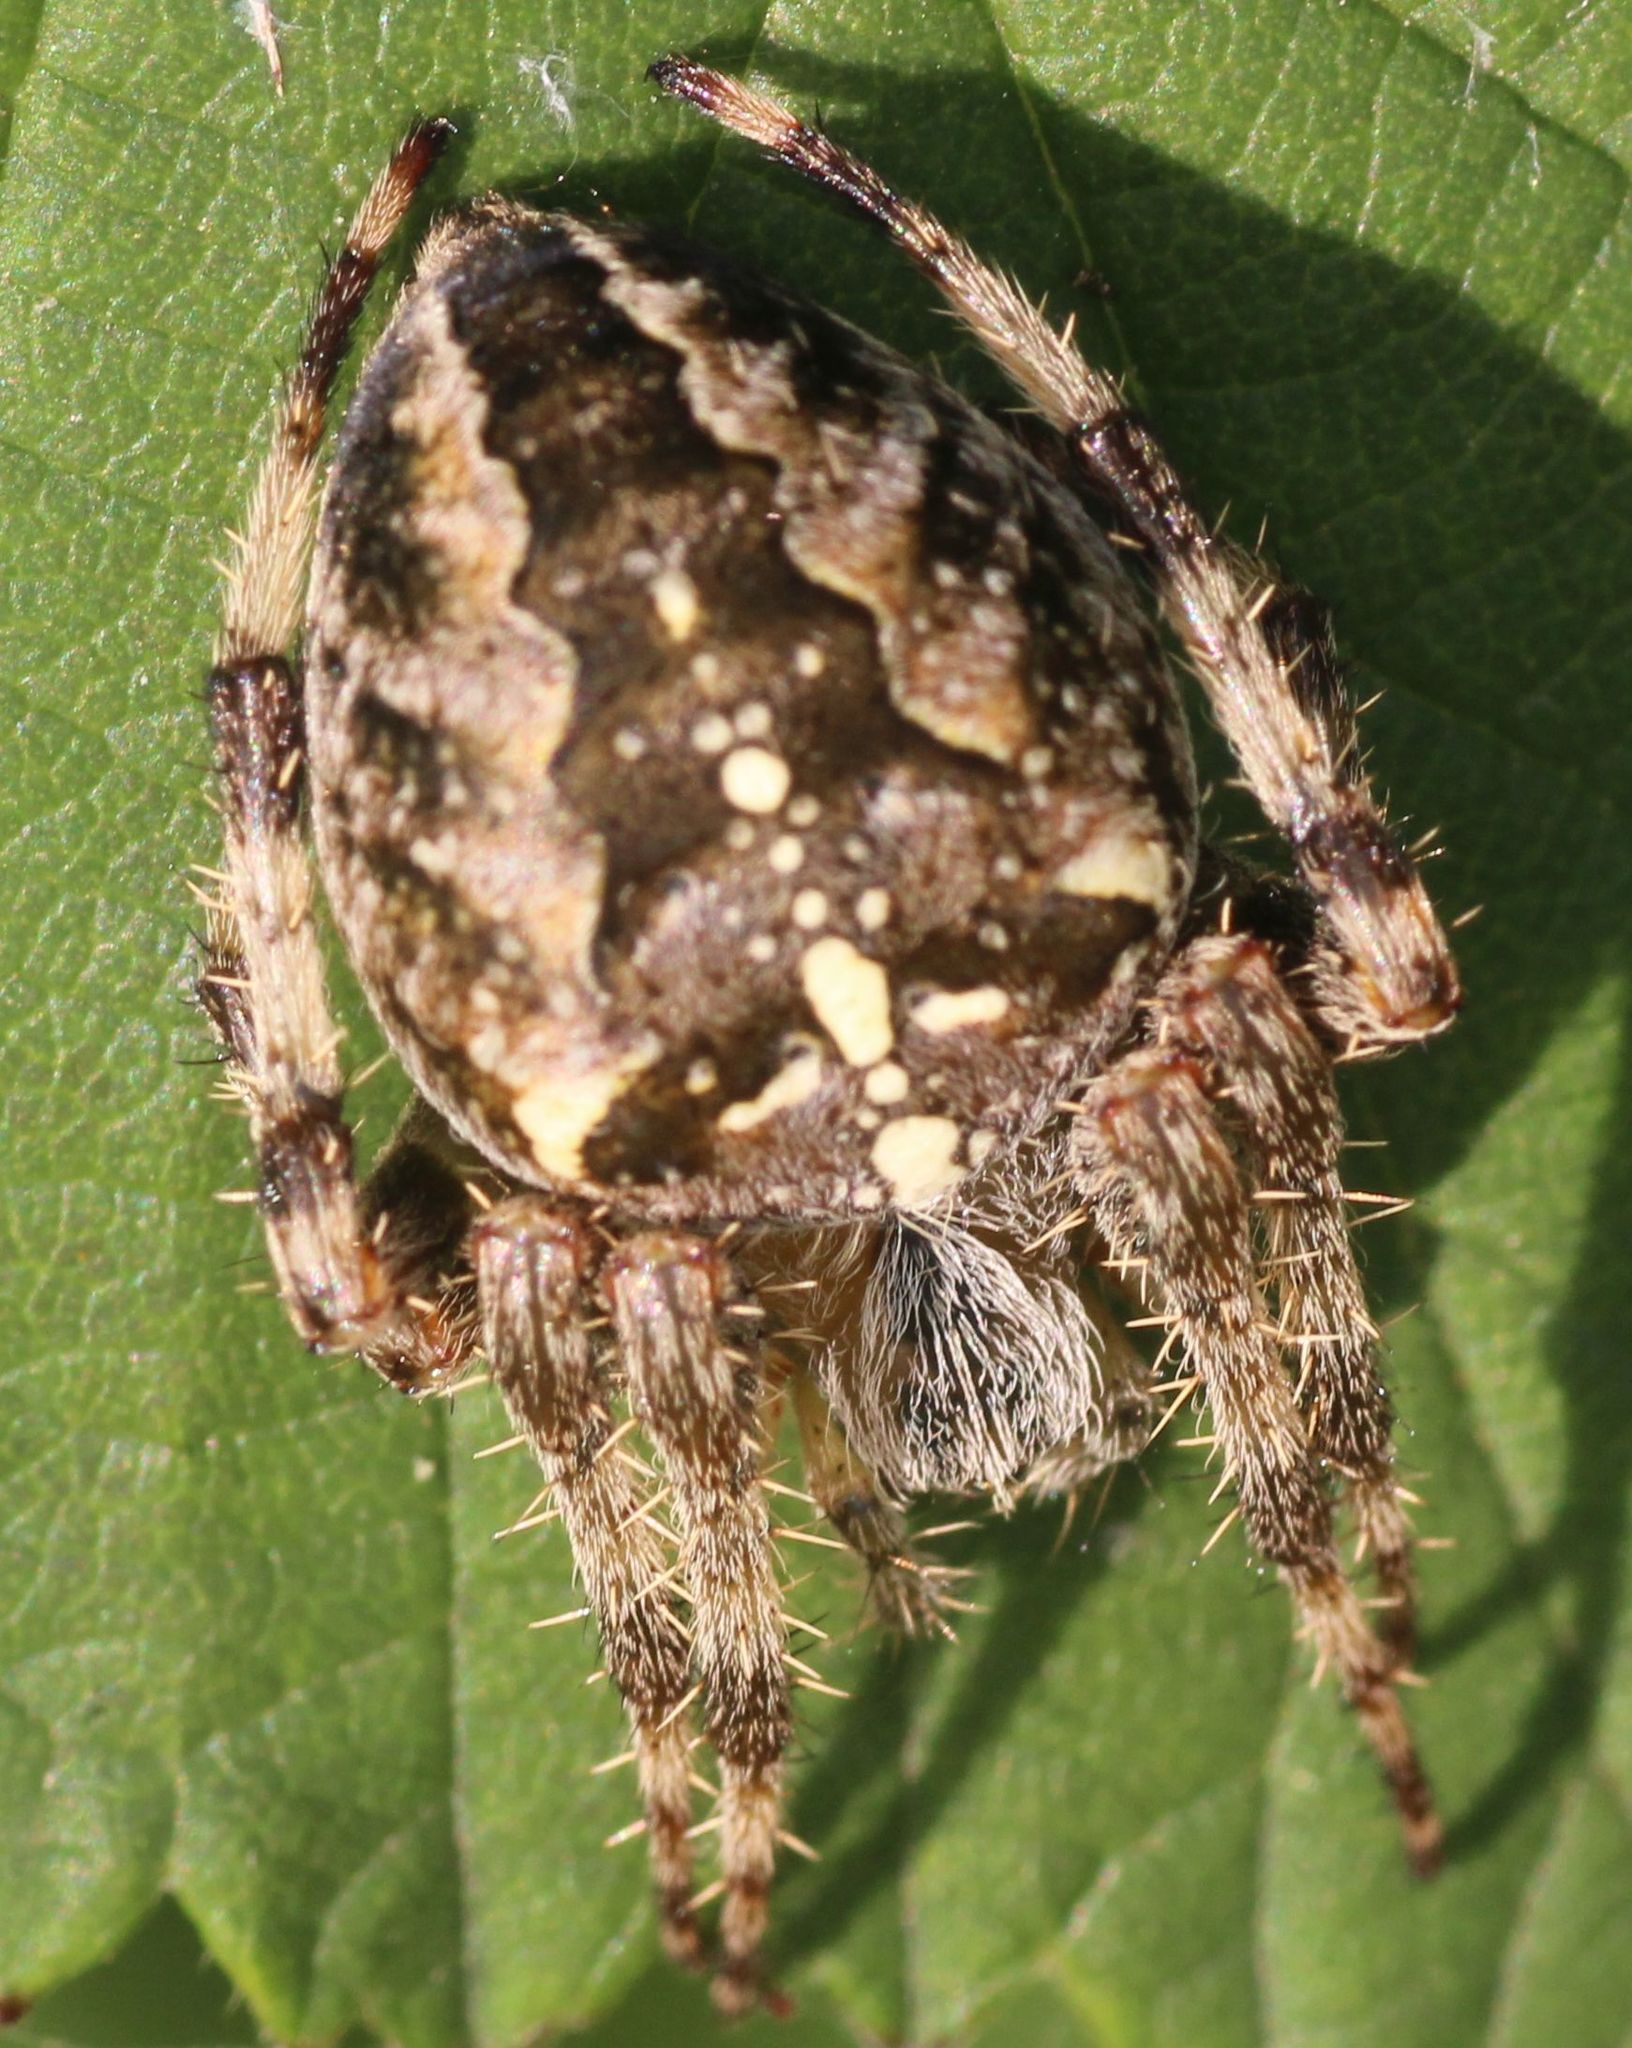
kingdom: Animalia
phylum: Arthropoda
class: Arachnida
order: Araneae
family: Araneidae
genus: Araneus
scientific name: Araneus diadematus
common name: Cross orbweaver
